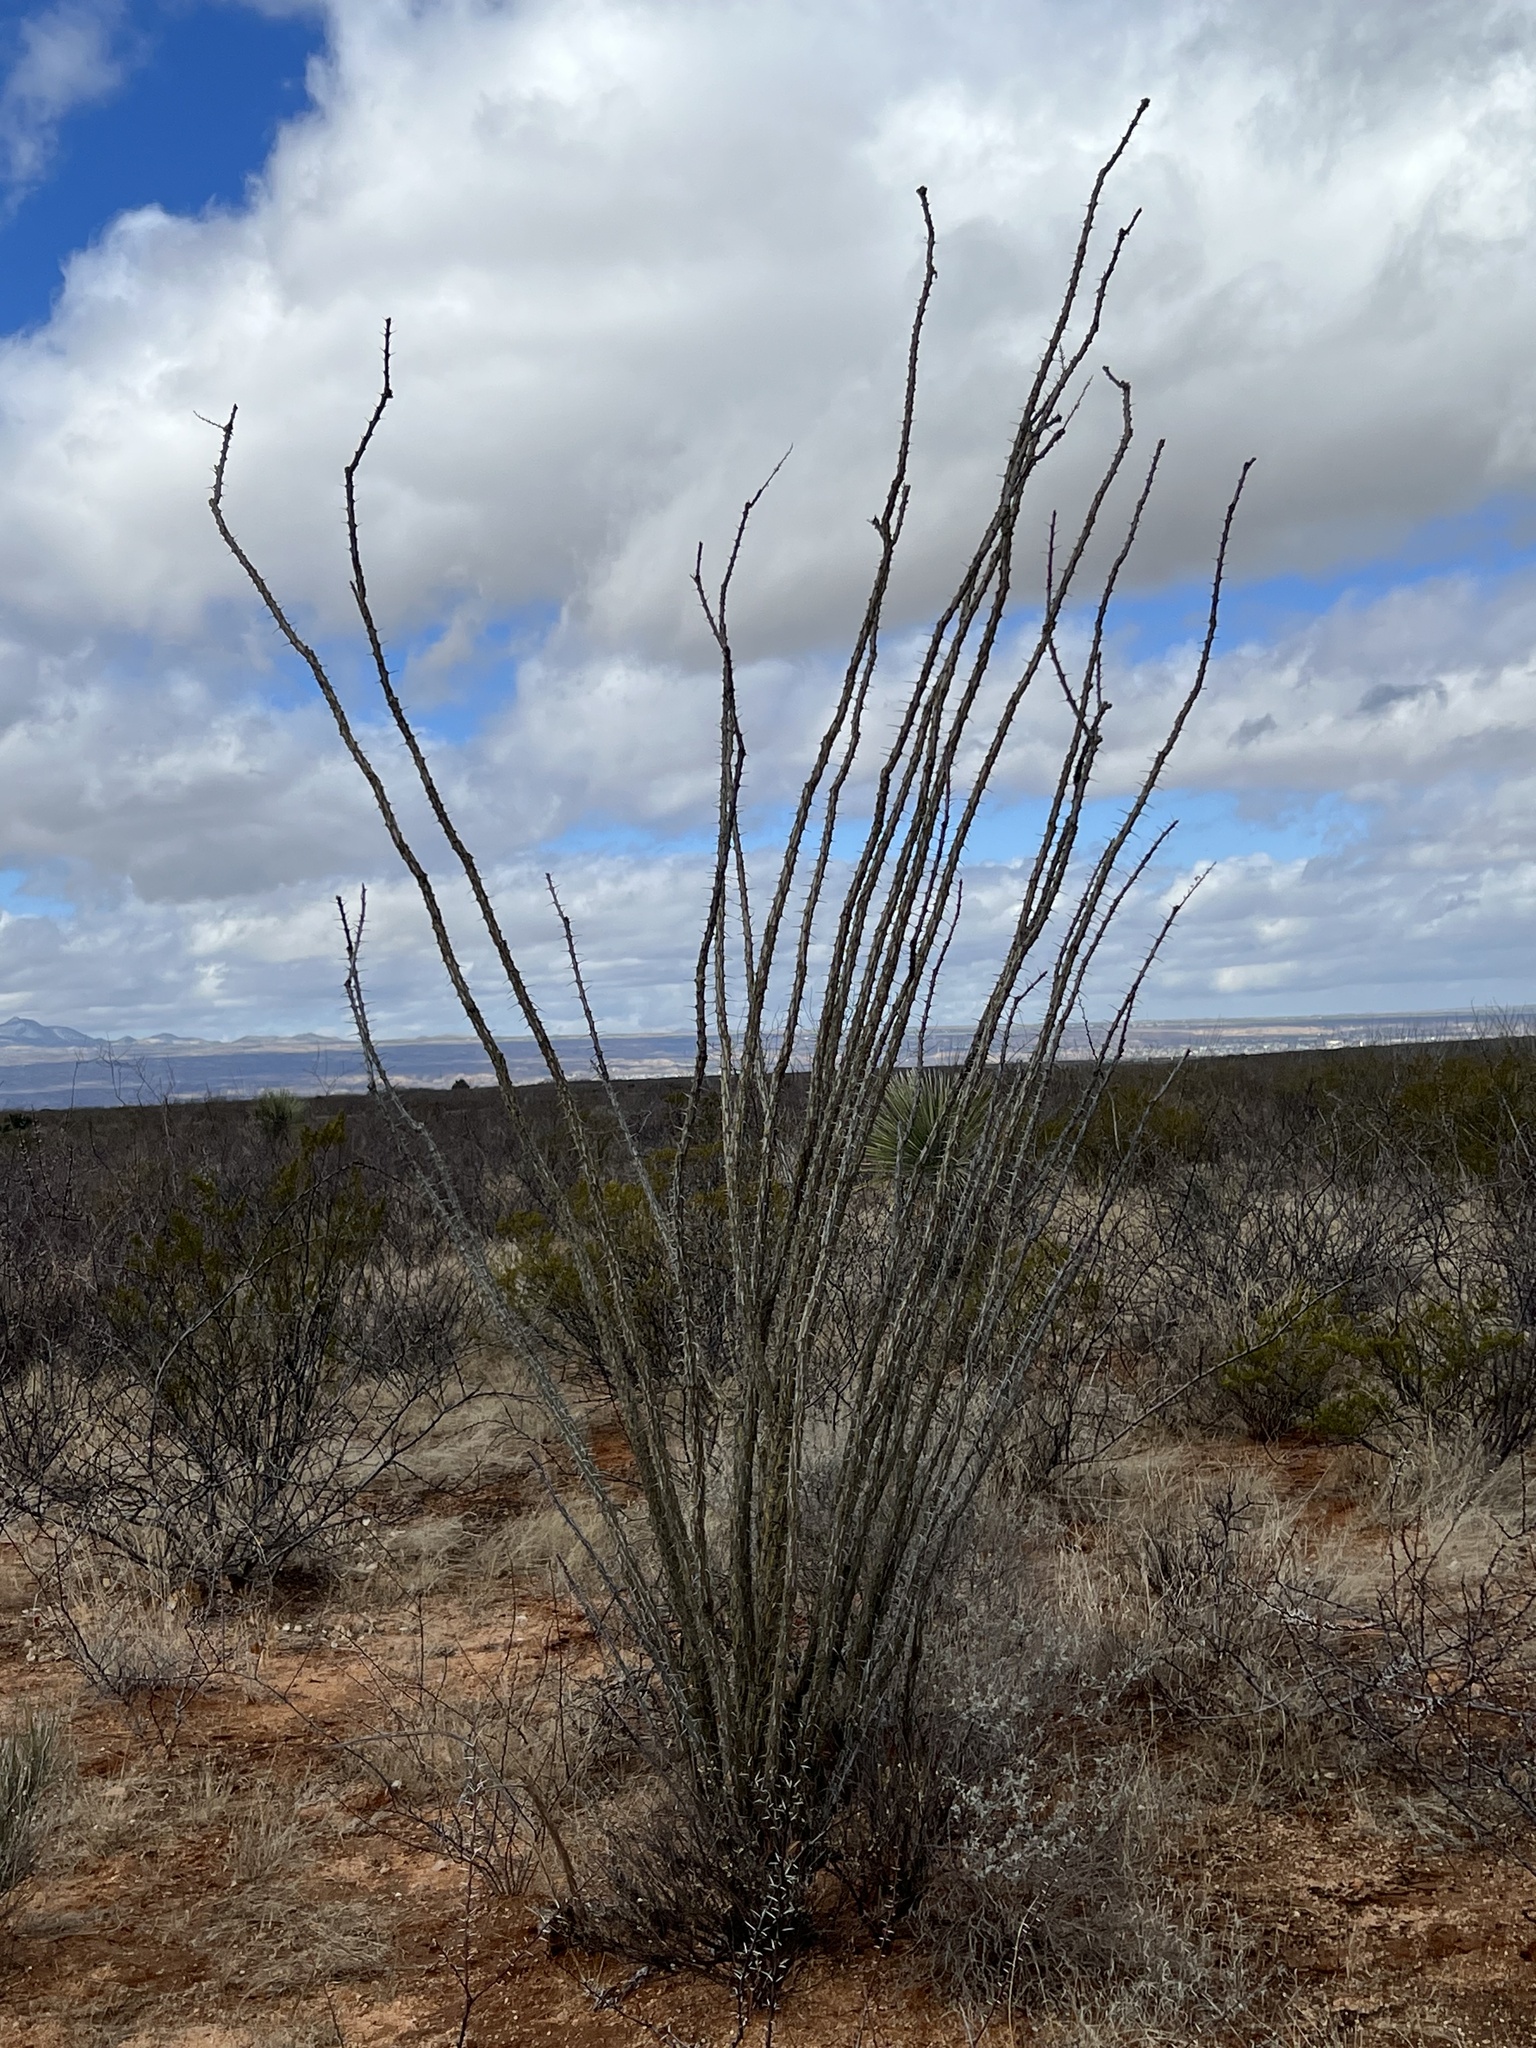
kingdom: Plantae
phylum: Tracheophyta
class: Magnoliopsida
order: Ericales
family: Fouquieriaceae
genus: Fouquieria
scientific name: Fouquieria splendens
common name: Vine-cactus
